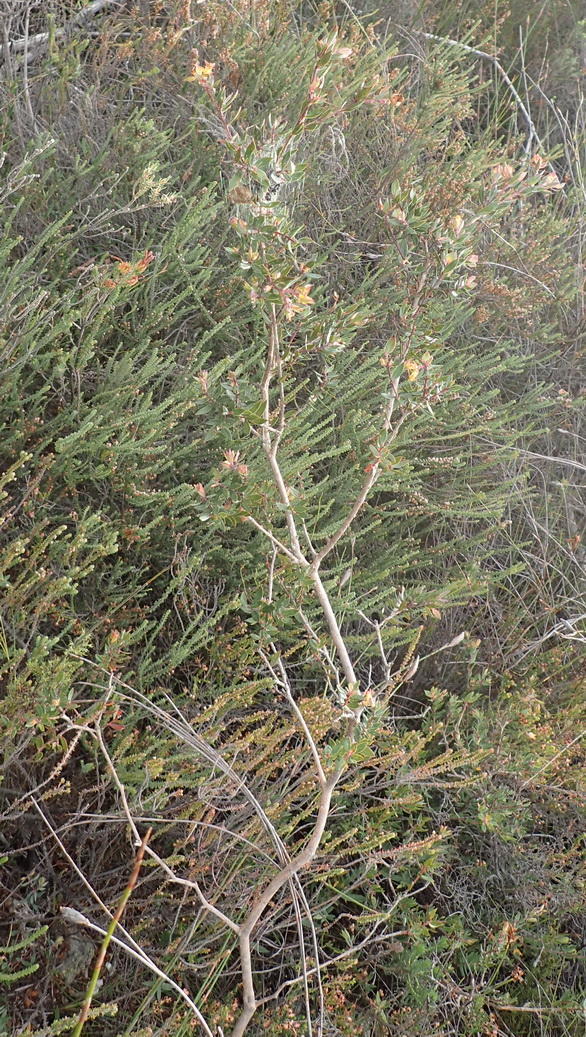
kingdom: Plantae
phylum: Tracheophyta
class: Magnoliopsida
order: Myrtales
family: Penaeaceae
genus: Penaea
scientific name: Penaea acutifolia
